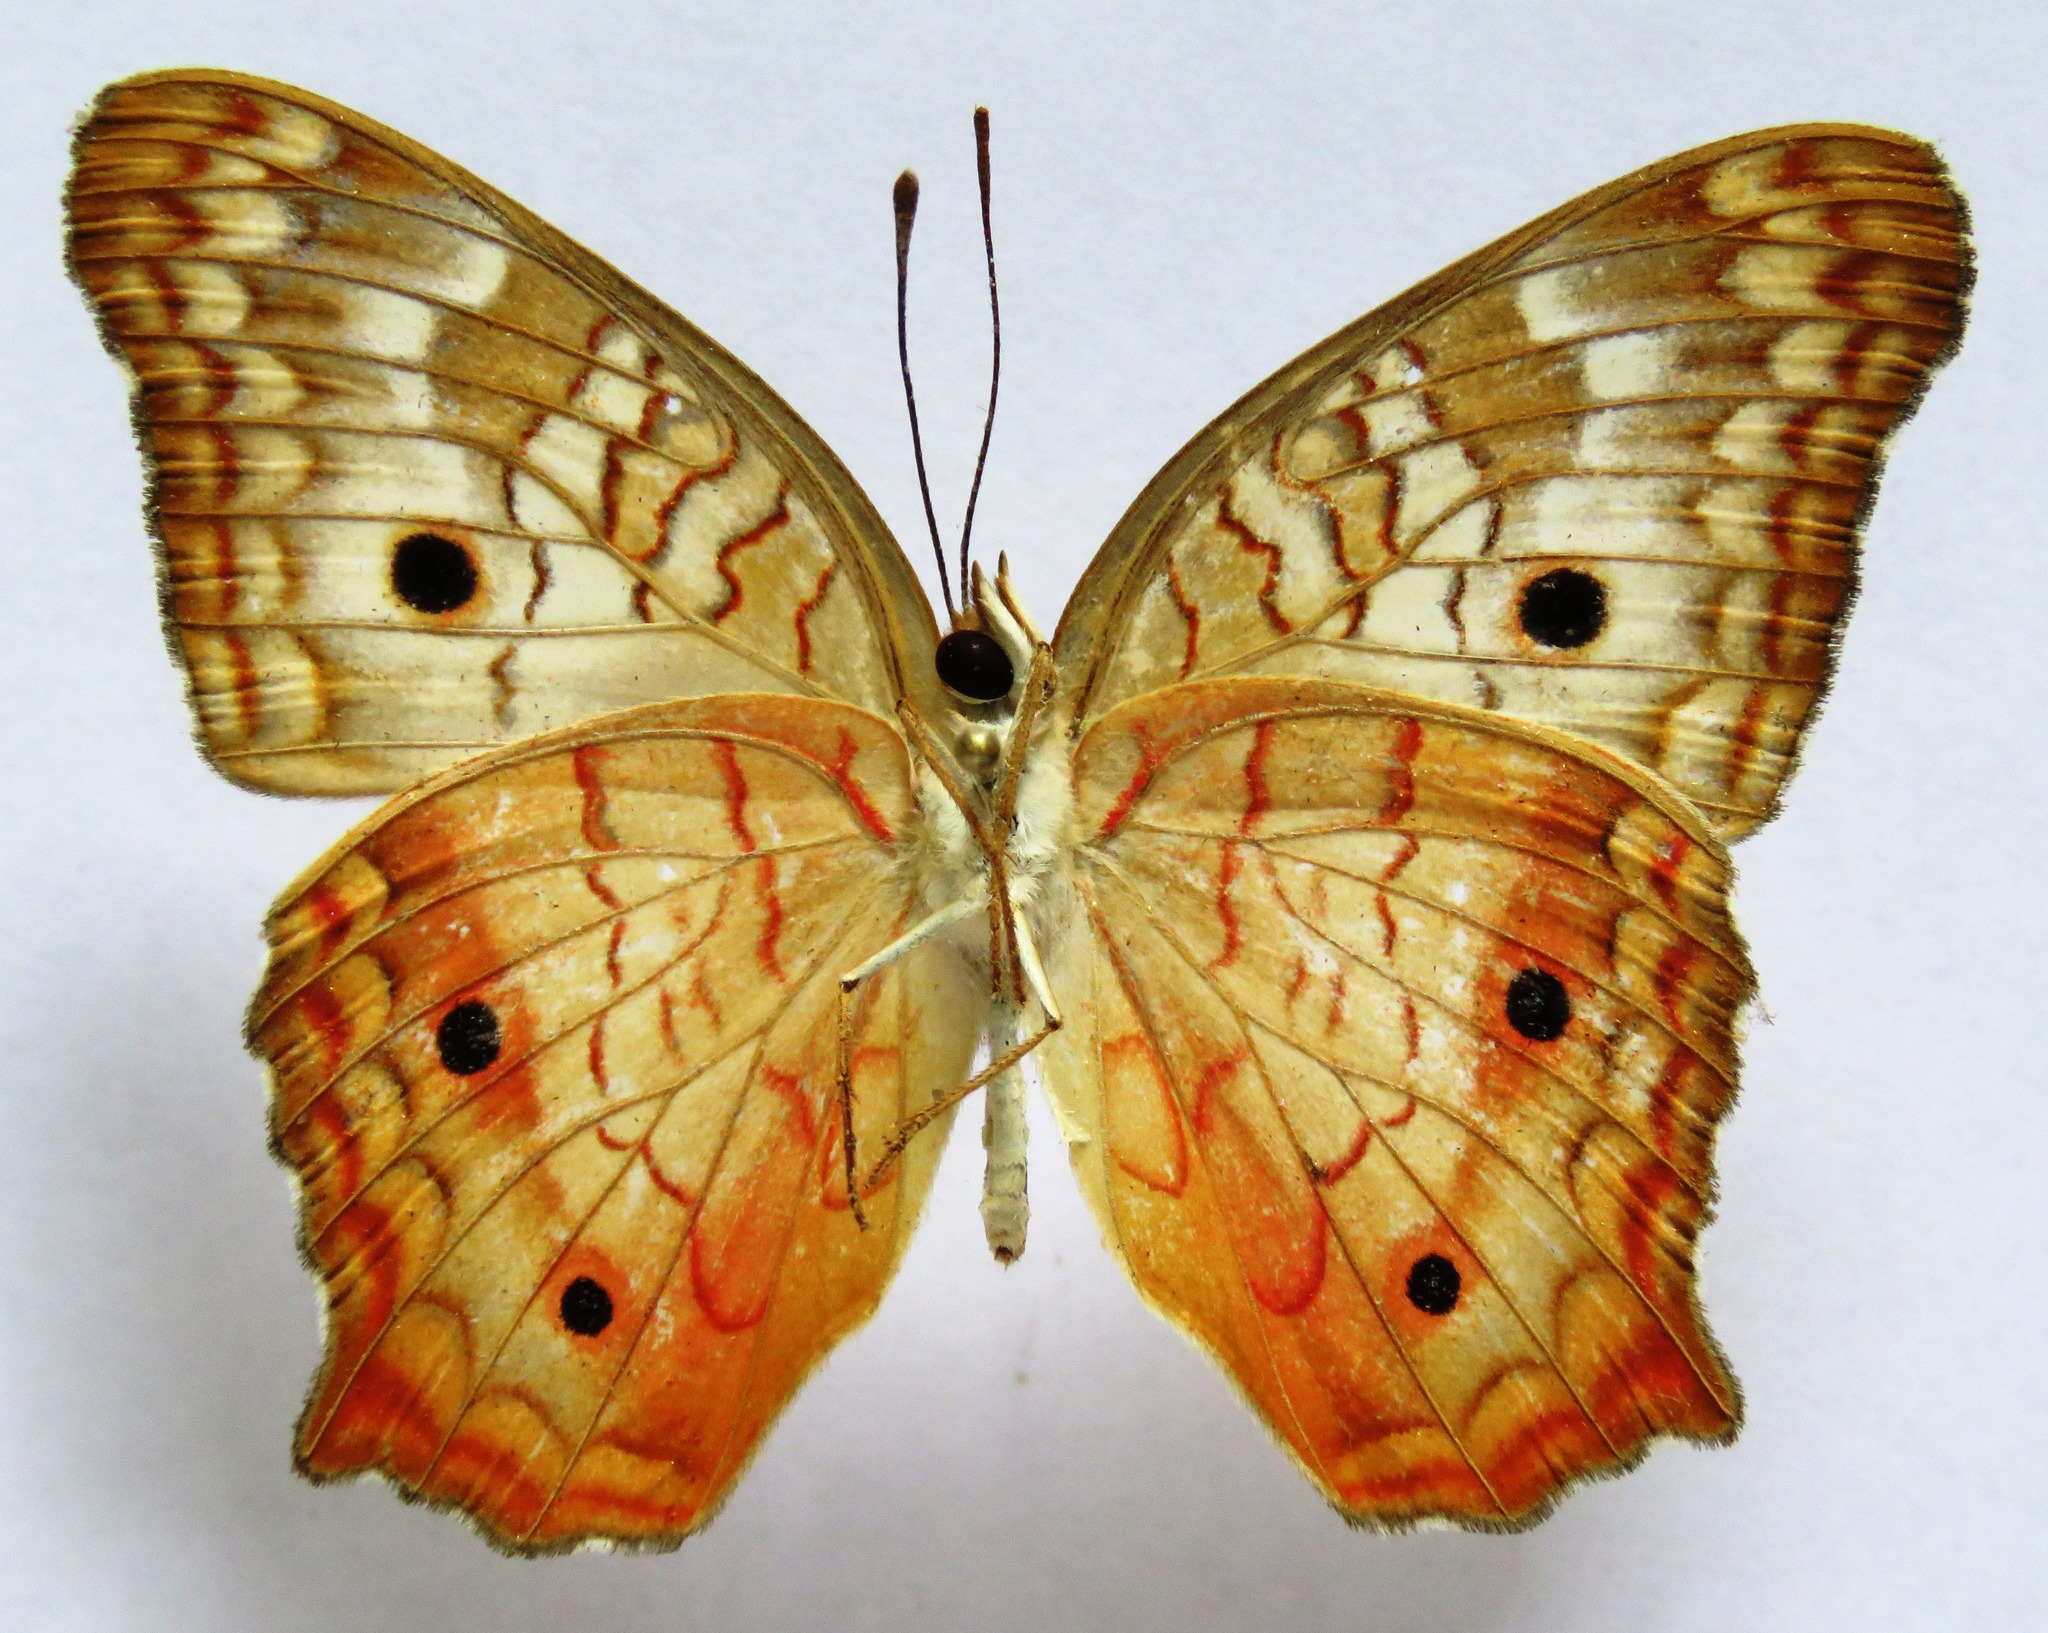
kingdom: Animalia
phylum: Arthropoda
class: Insecta
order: Lepidoptera
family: Nymphalidae
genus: Anartia
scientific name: Anartia jatrophae
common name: White peacock
